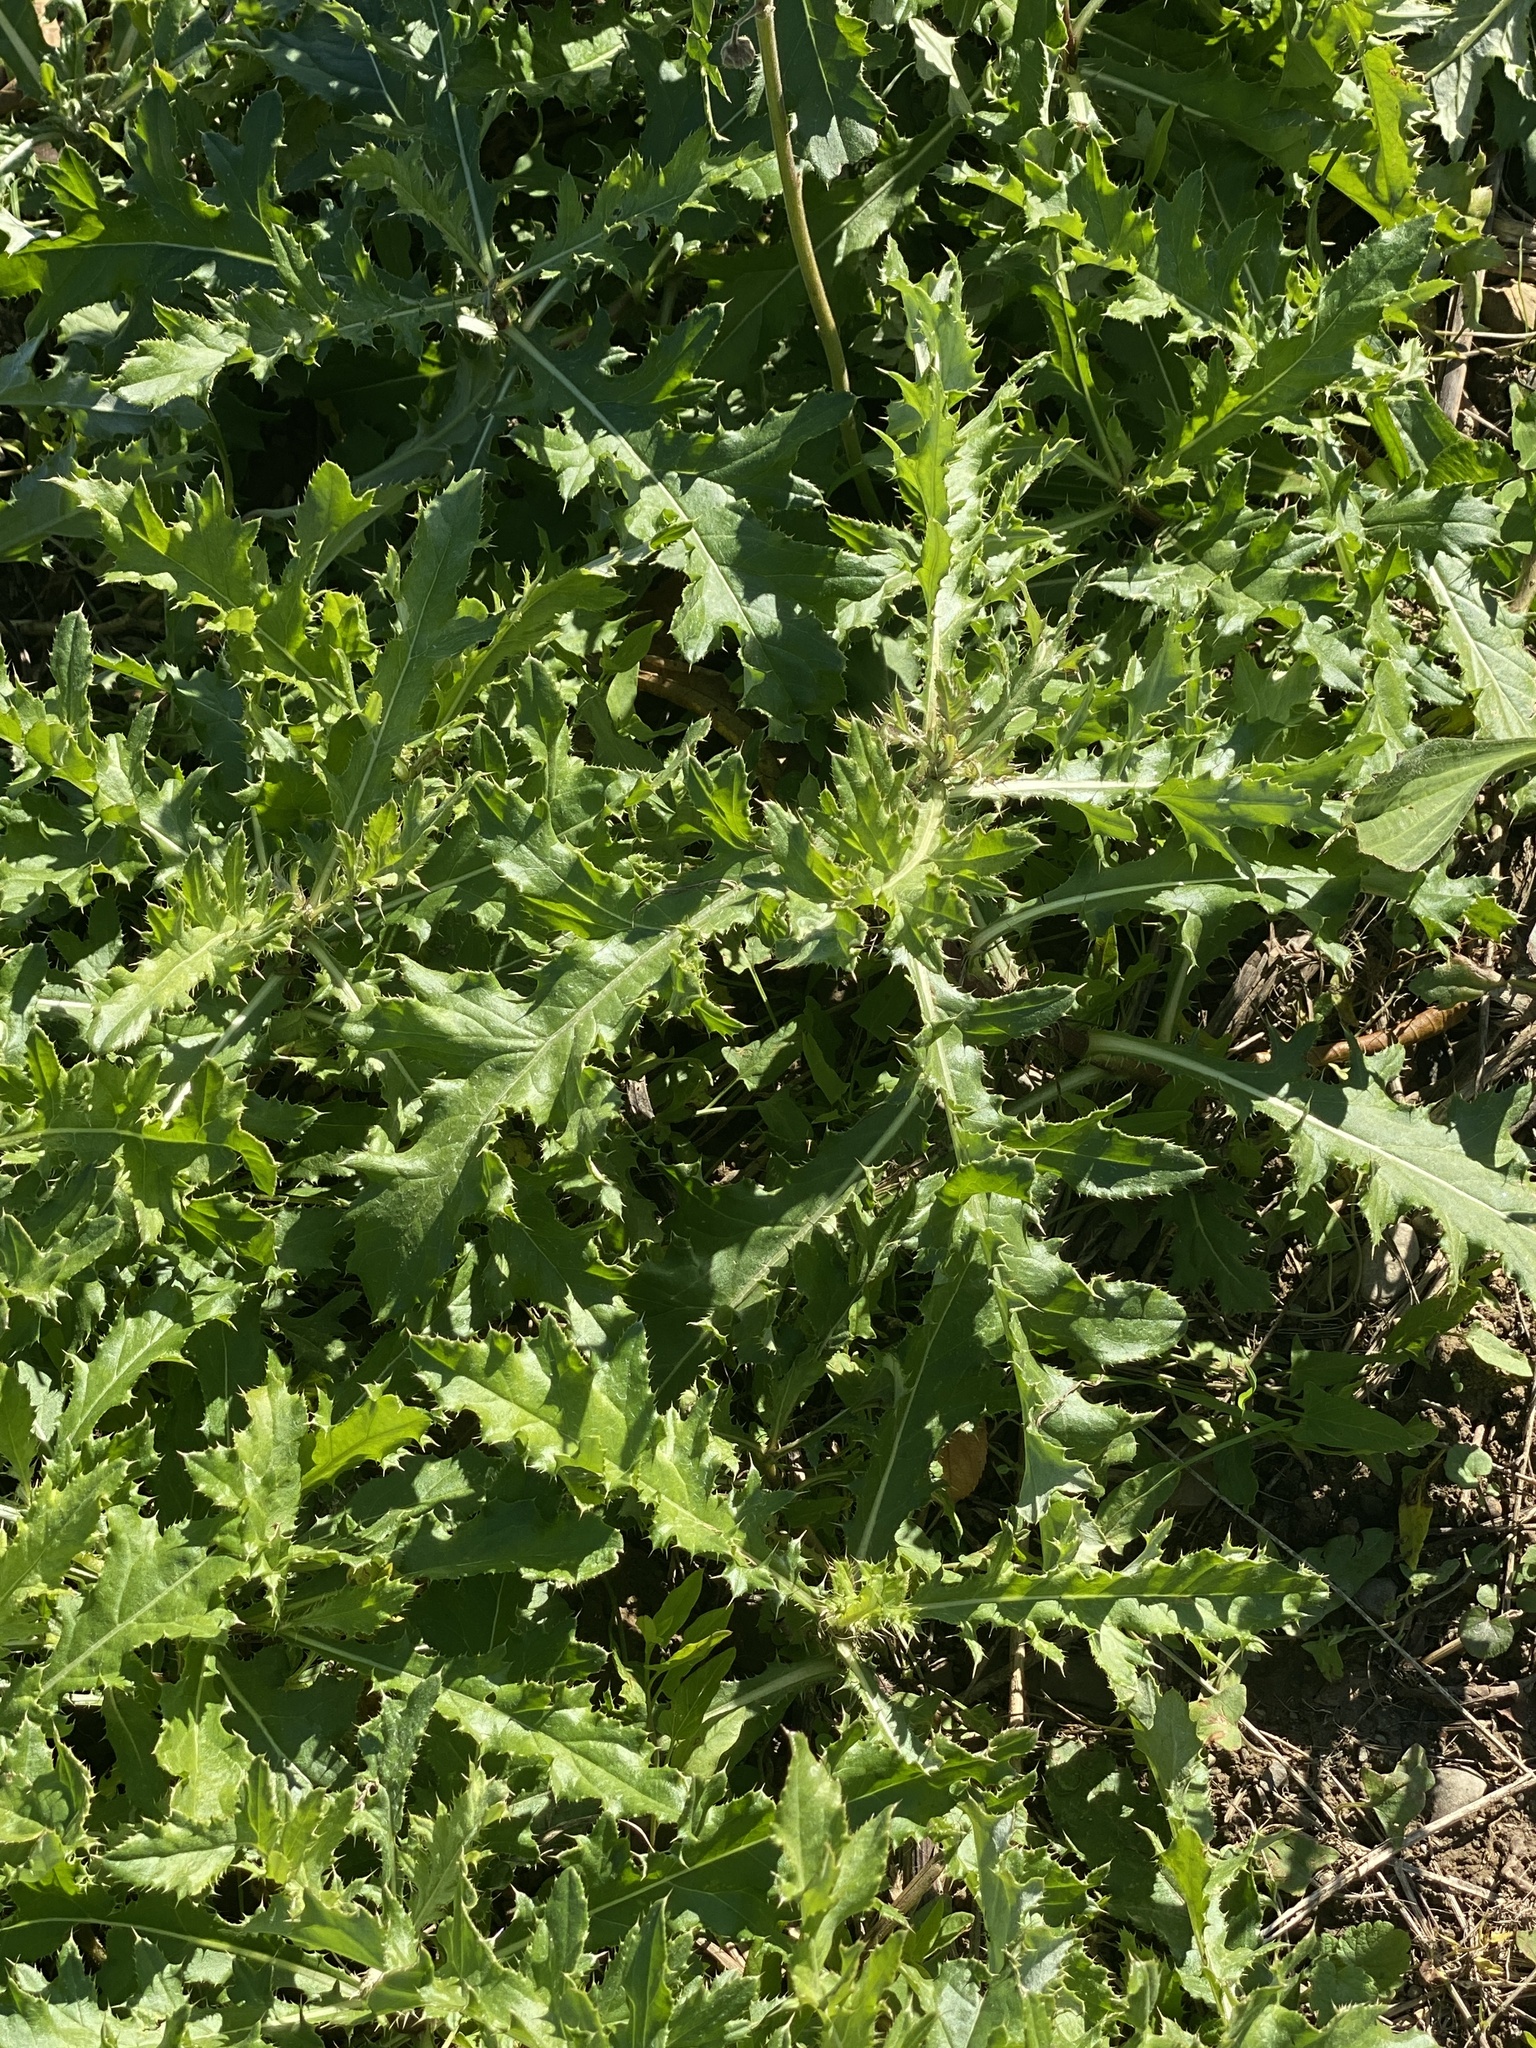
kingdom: Plantae
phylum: Tracheophyta
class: Magnoliopsida
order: Asterales
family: Asteraceae
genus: Cirsium
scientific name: Cirsium arvense
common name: Creeping thistle
